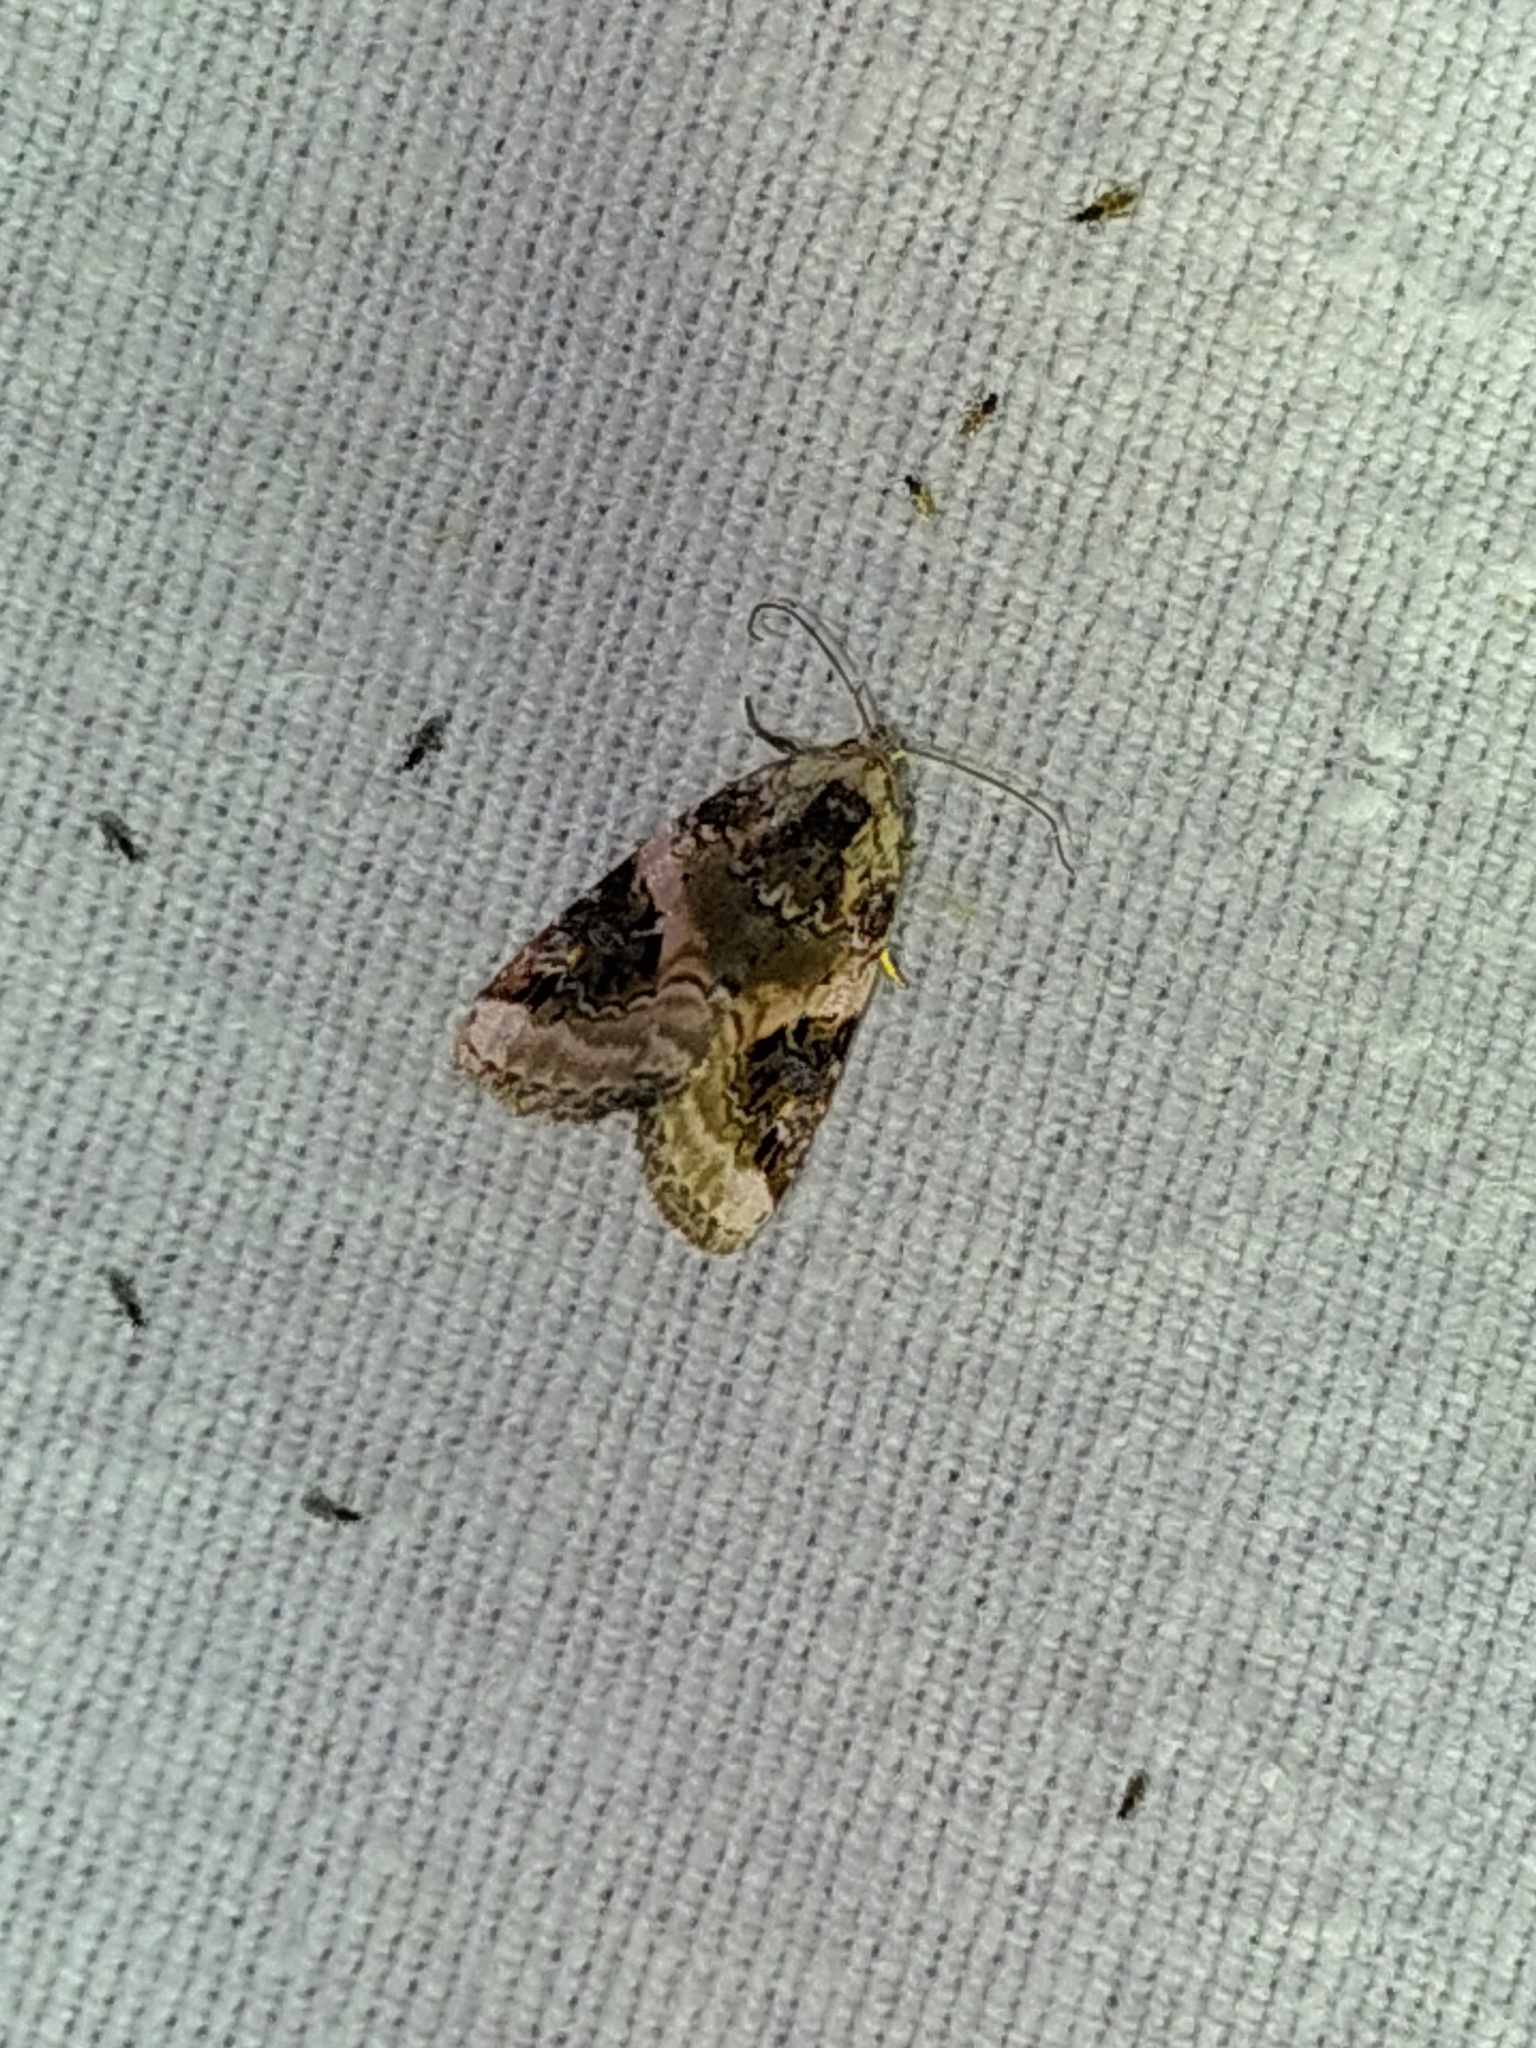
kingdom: Animalia
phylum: Arthropoda
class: Insecta
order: Lepidoptera
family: Noctuidae
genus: Pseudeustrotia
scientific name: Pseudeustrotia candidula
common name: Shining marbled
